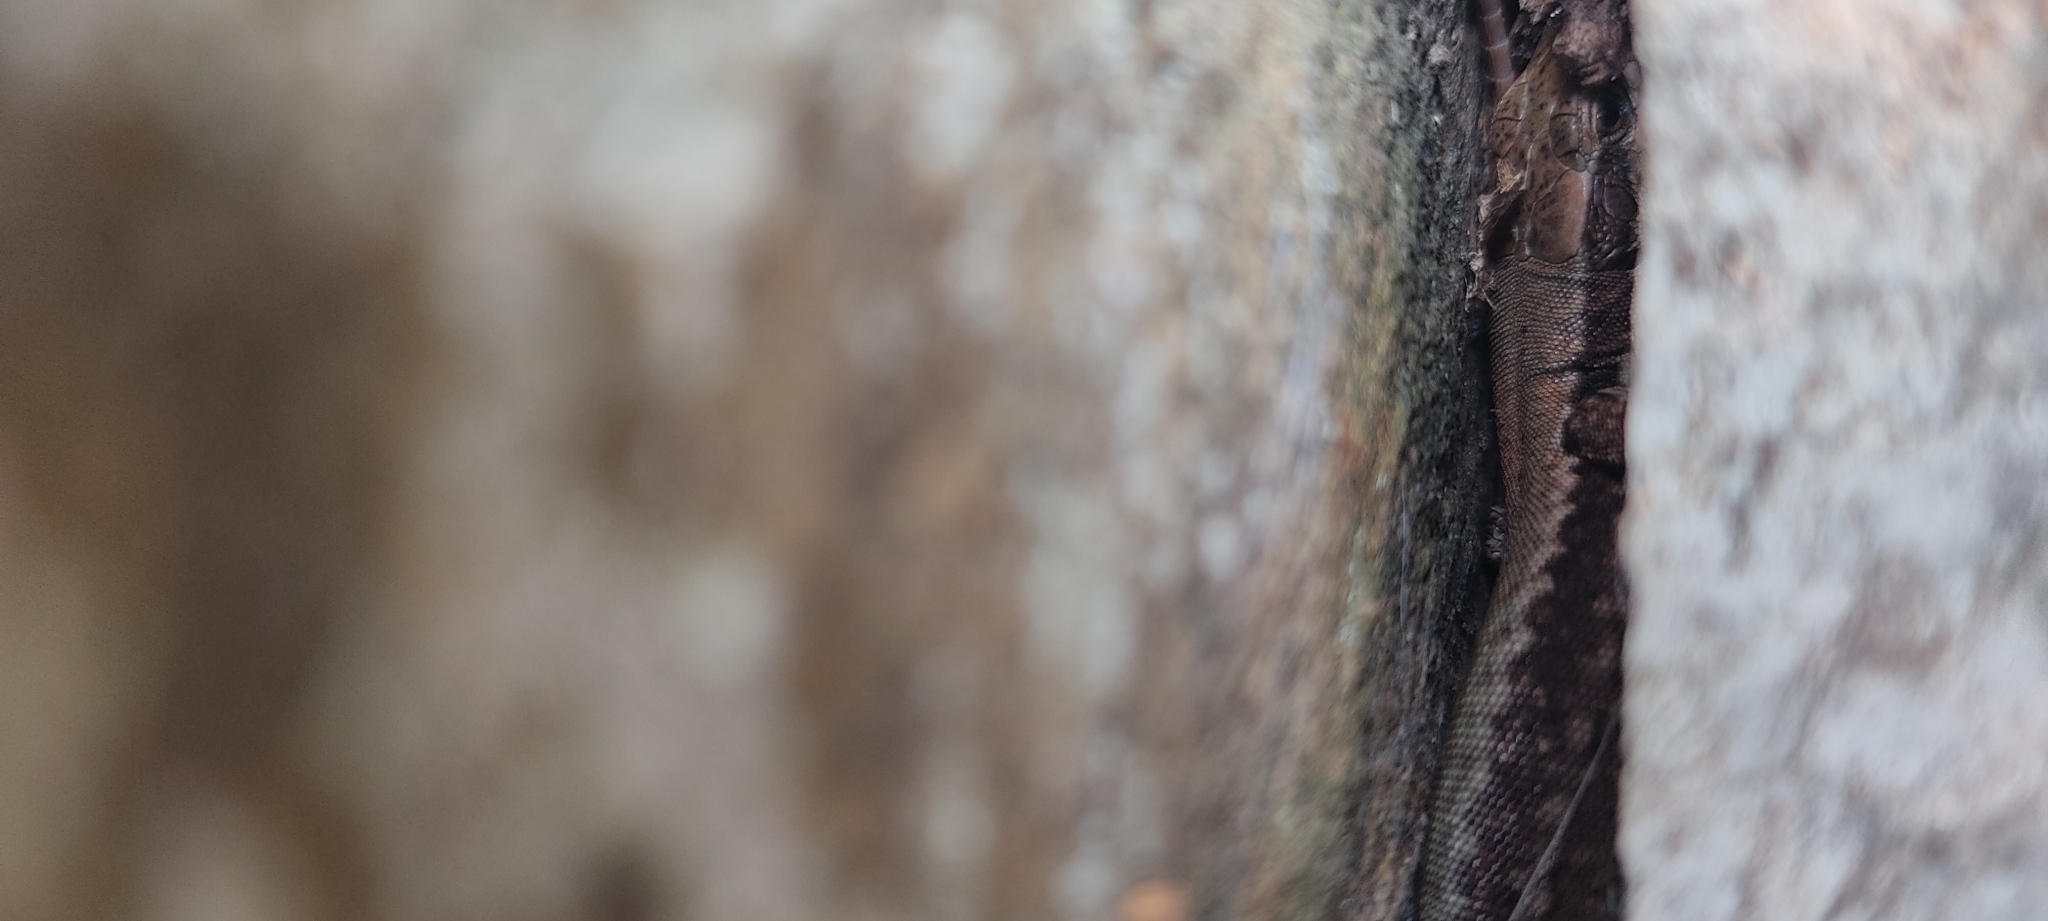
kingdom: Animalia
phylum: Chordata
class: Squamata
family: Lacertidae
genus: Podarcis
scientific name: Podarcis muralis
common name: Common wall lizard
